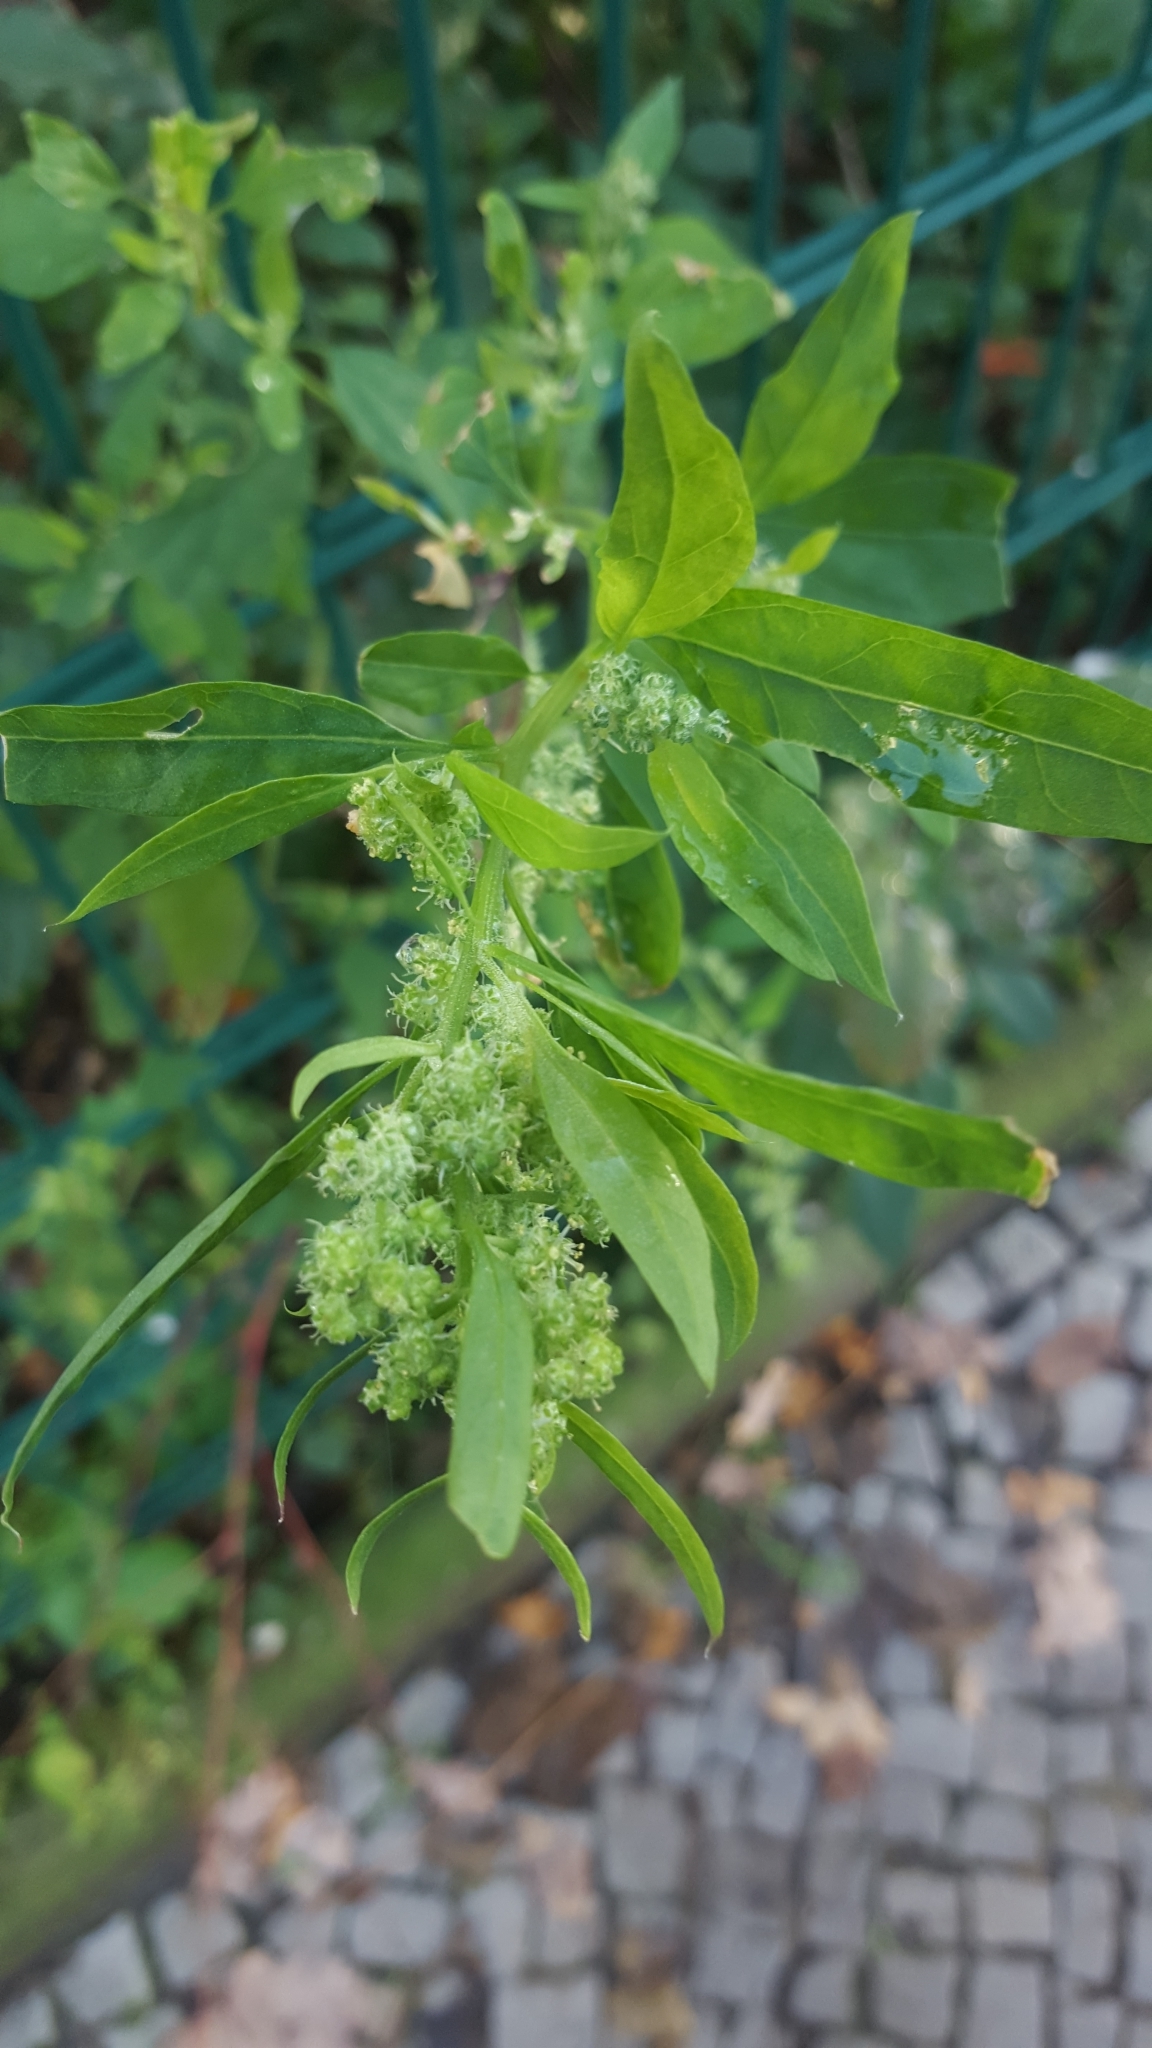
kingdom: Plantae
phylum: Tracheophyta
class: Magnoliopsida
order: Caryophyllales
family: Amaranthaceae
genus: Chenopodium
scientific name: Chenopodium album
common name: Fat-hen
